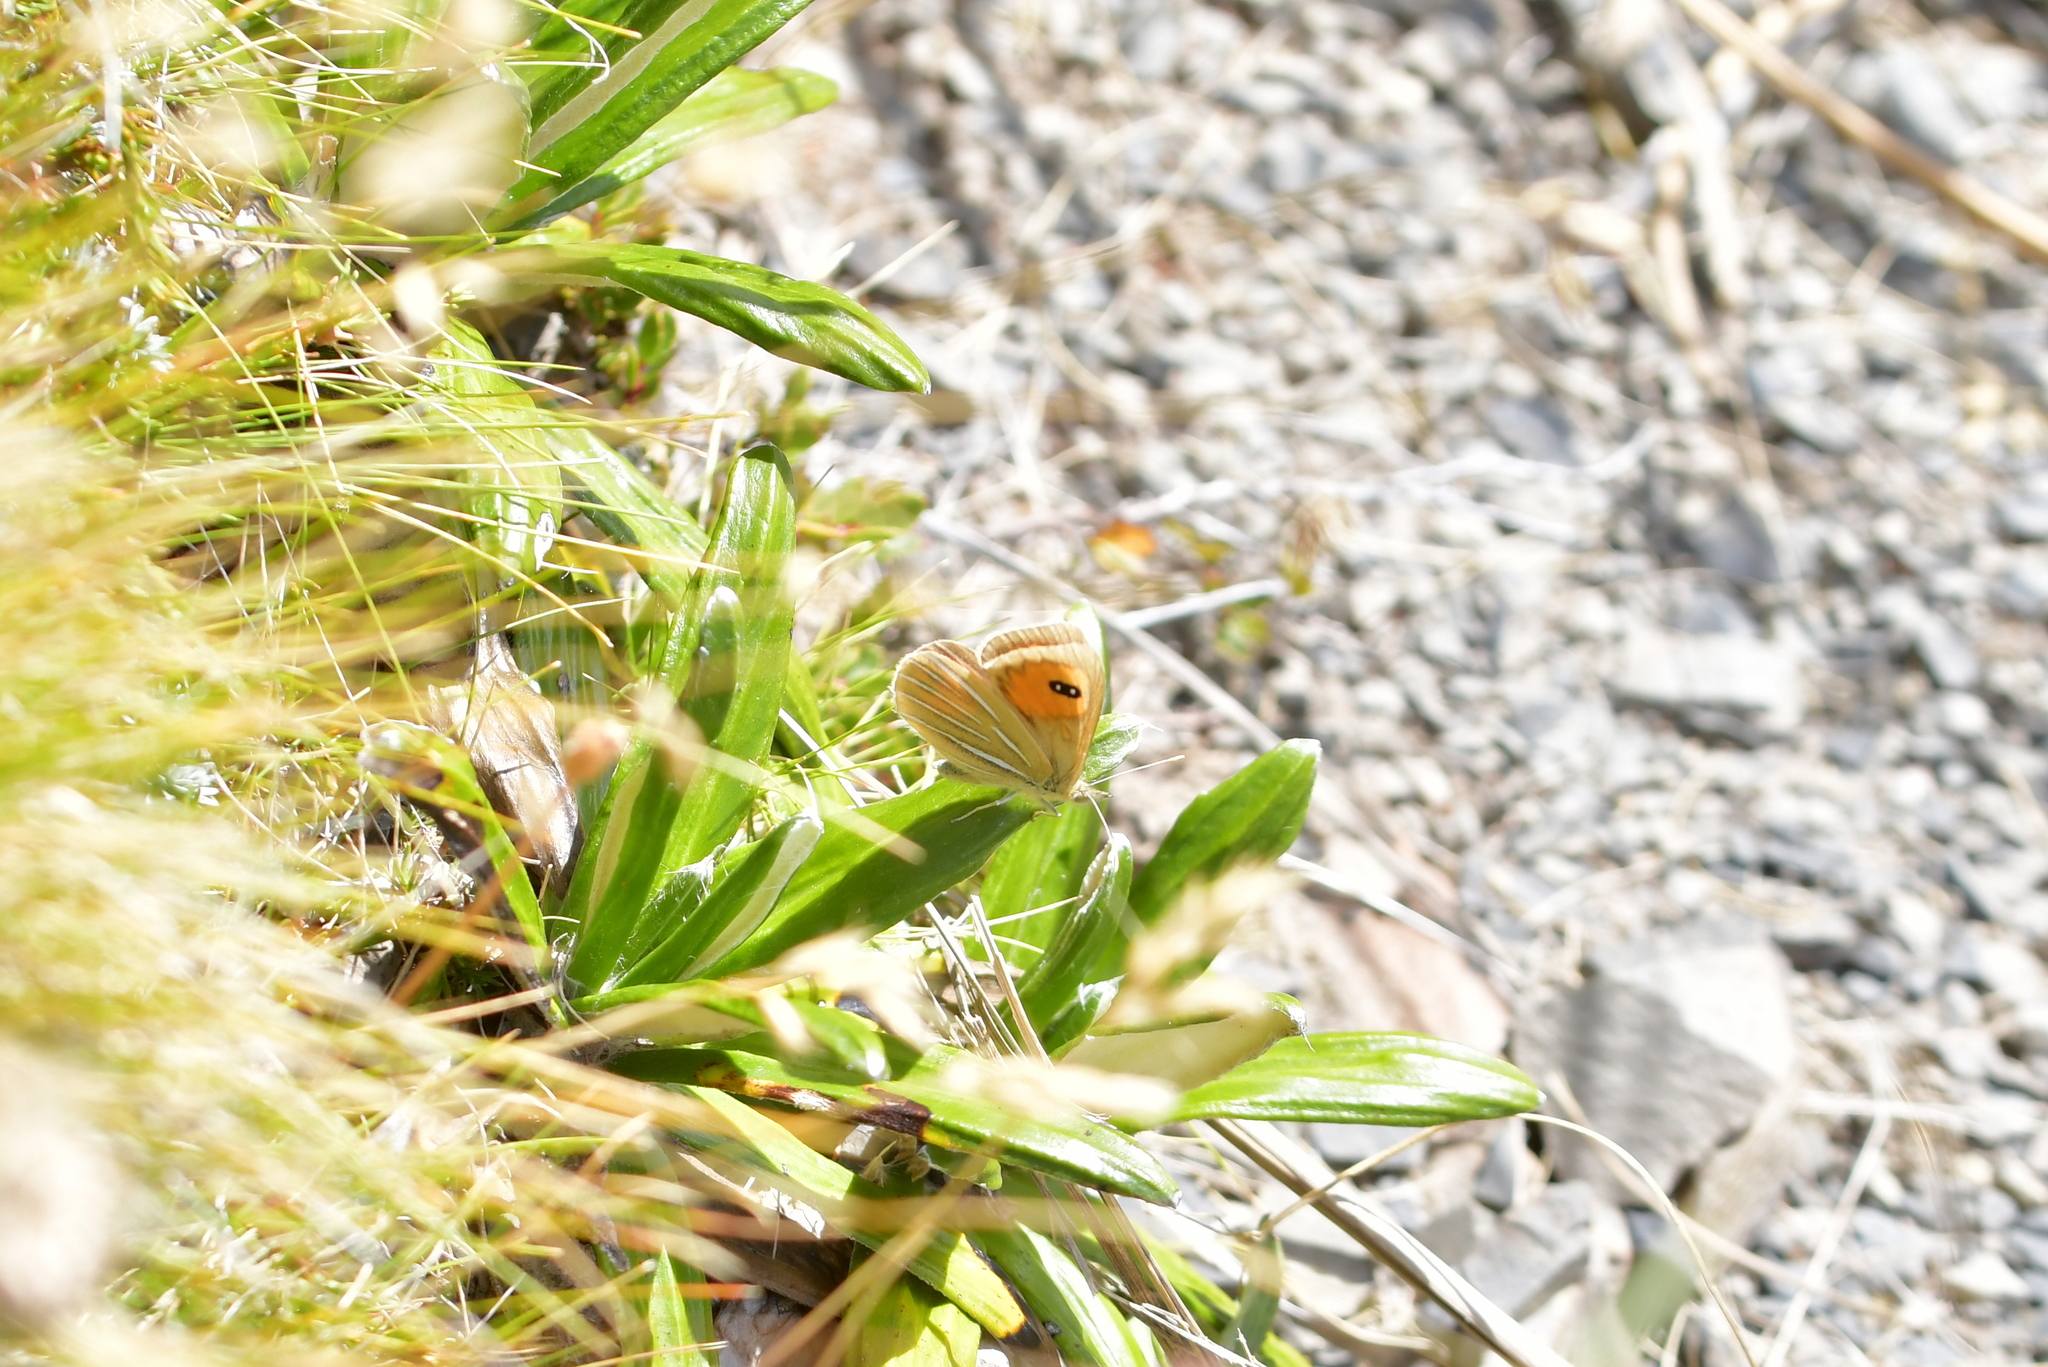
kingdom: Animalia
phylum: Arthropoda
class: Insecta
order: Lepidoptera
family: Nymphalidae
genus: Argyrophenga
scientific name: Argyrophenga janitae
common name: Janita's tussock
